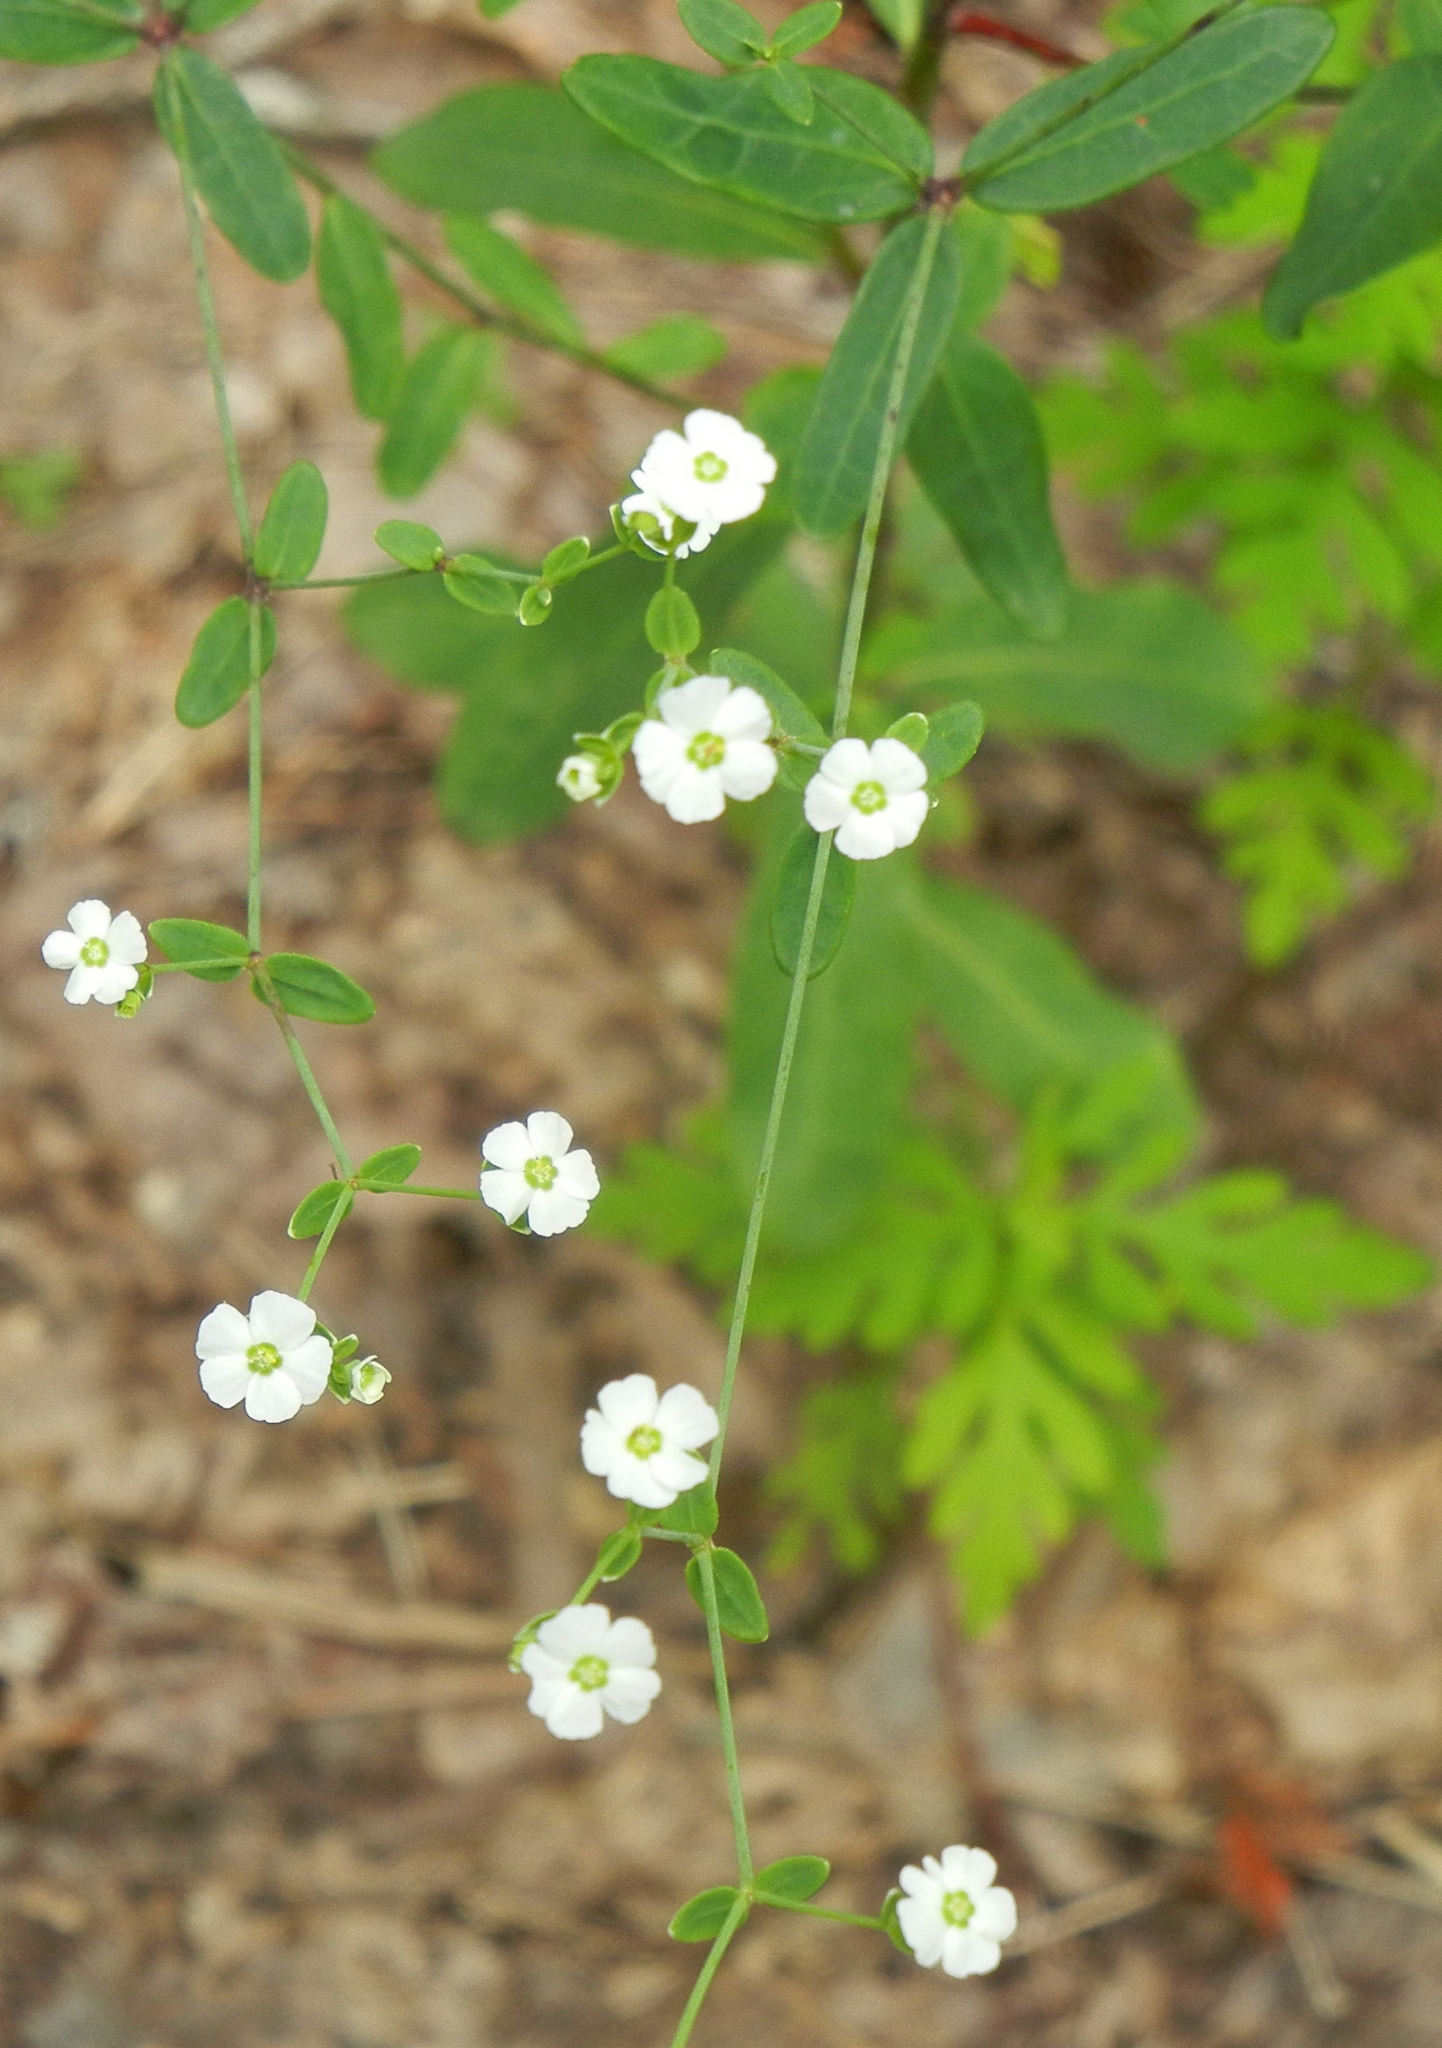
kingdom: Plantae
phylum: Tracheophyta
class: Magnoliopsida
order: Malpighiales
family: Euphorbiaceae
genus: Euphorbia
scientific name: Euphorbia corollata
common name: Flowering spurge
